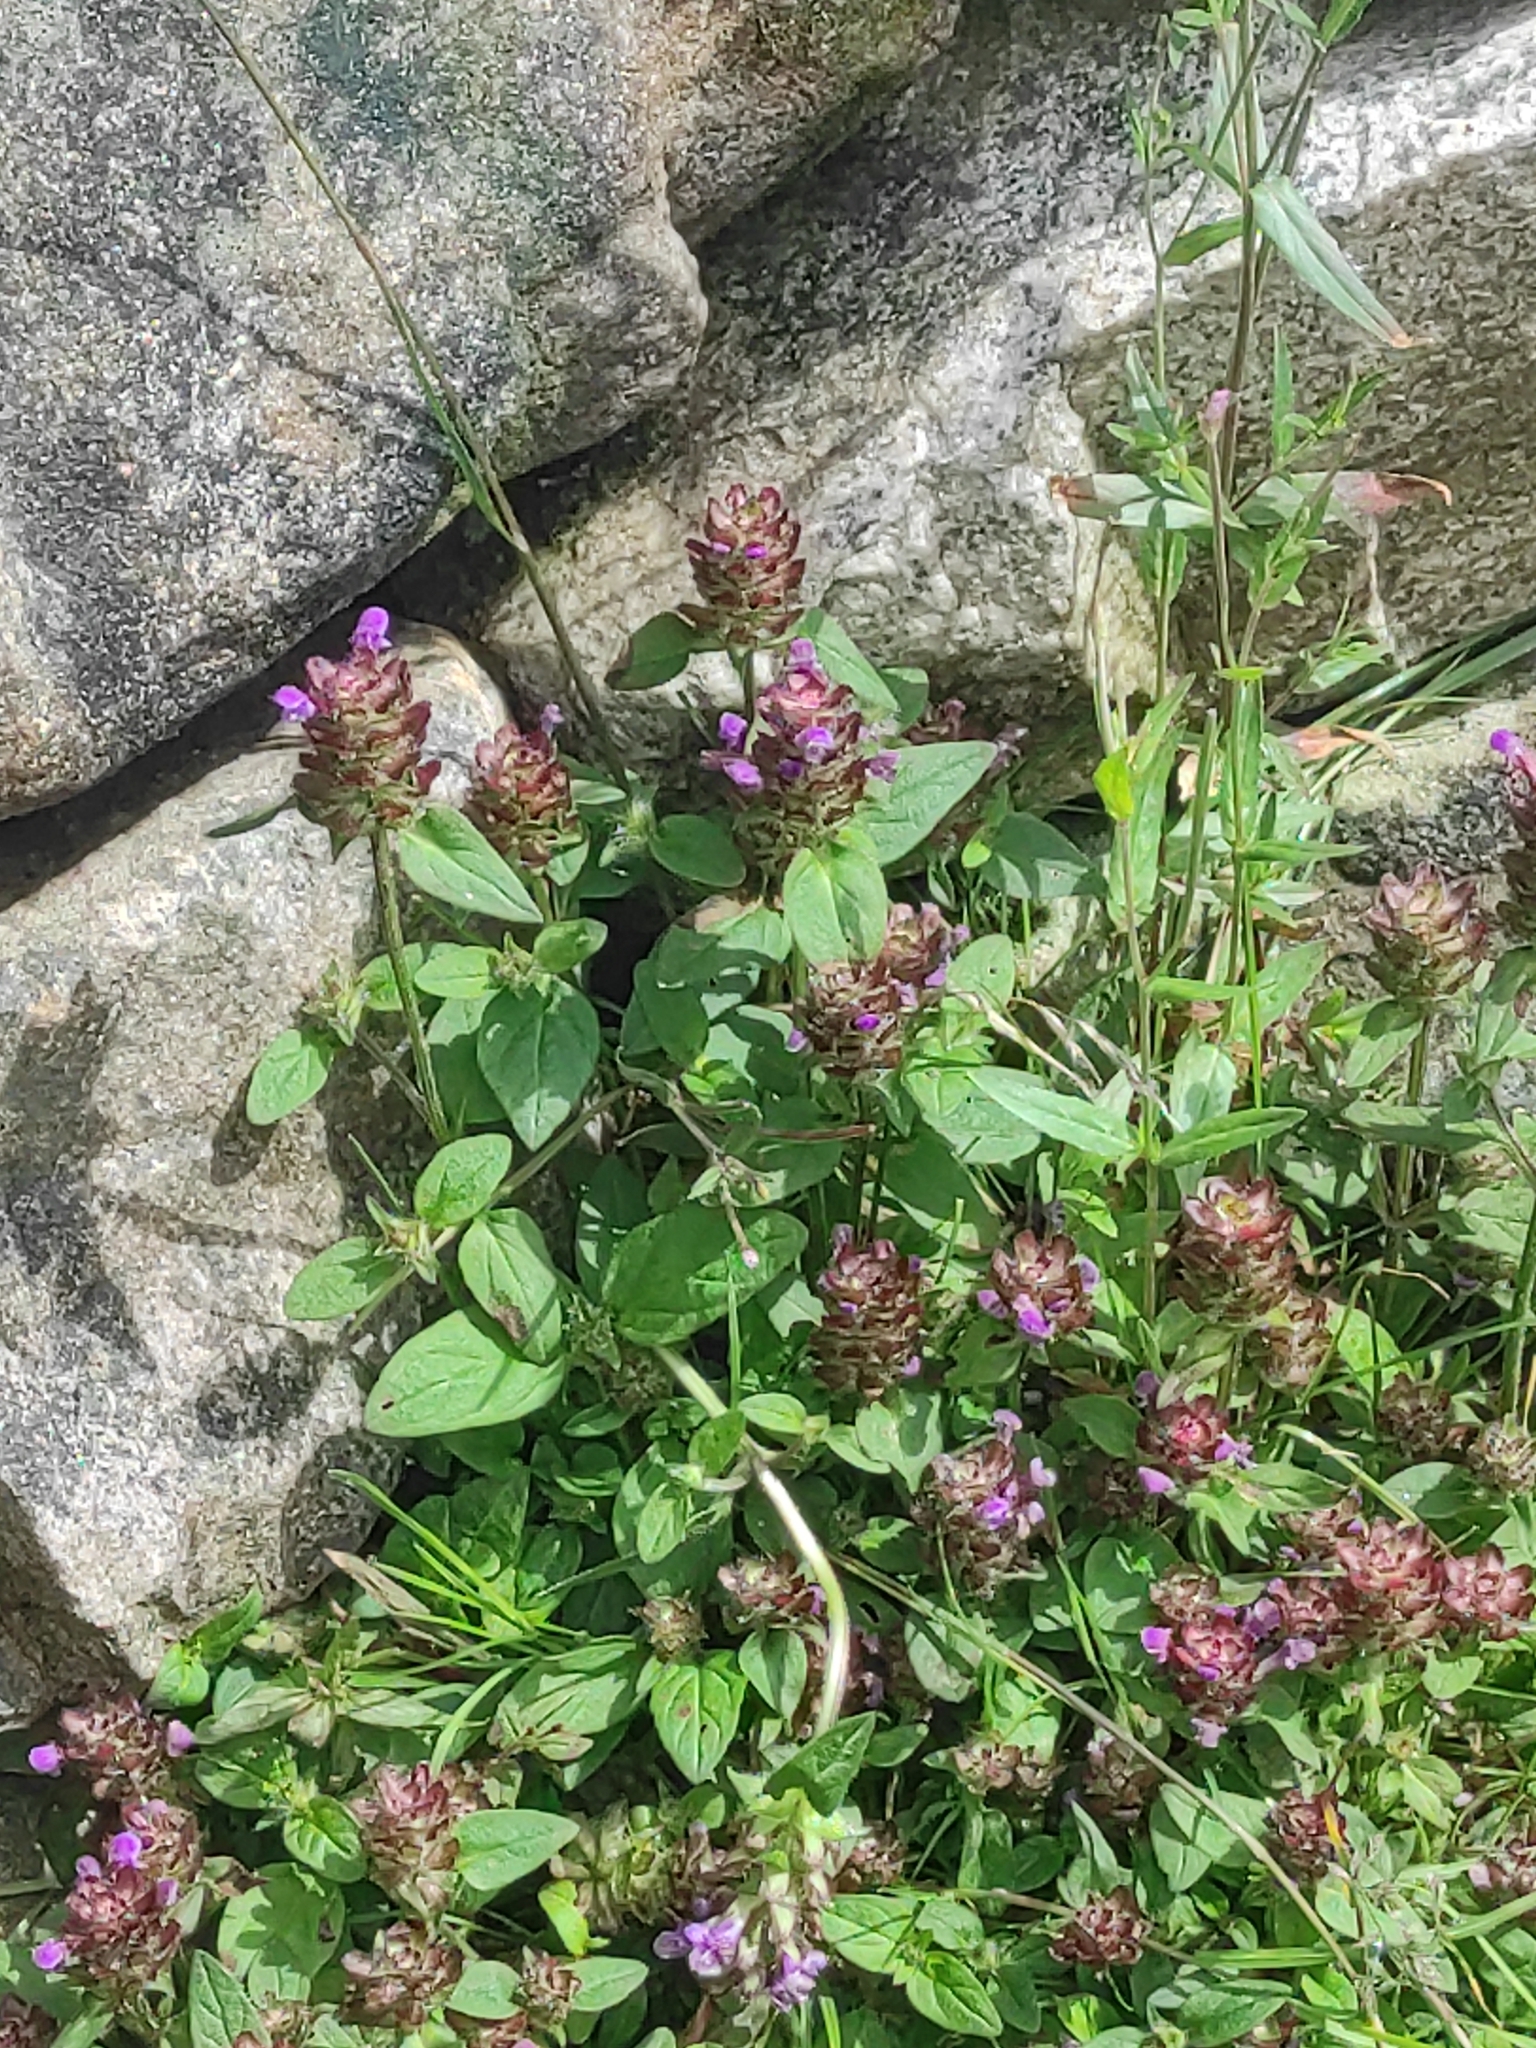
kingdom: Plantae
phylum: Tracheophyta
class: Magnoliopsida
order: Lamiales
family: Lamiaceae
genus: Prunella
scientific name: Prunella vulgaris
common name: Heal-all
